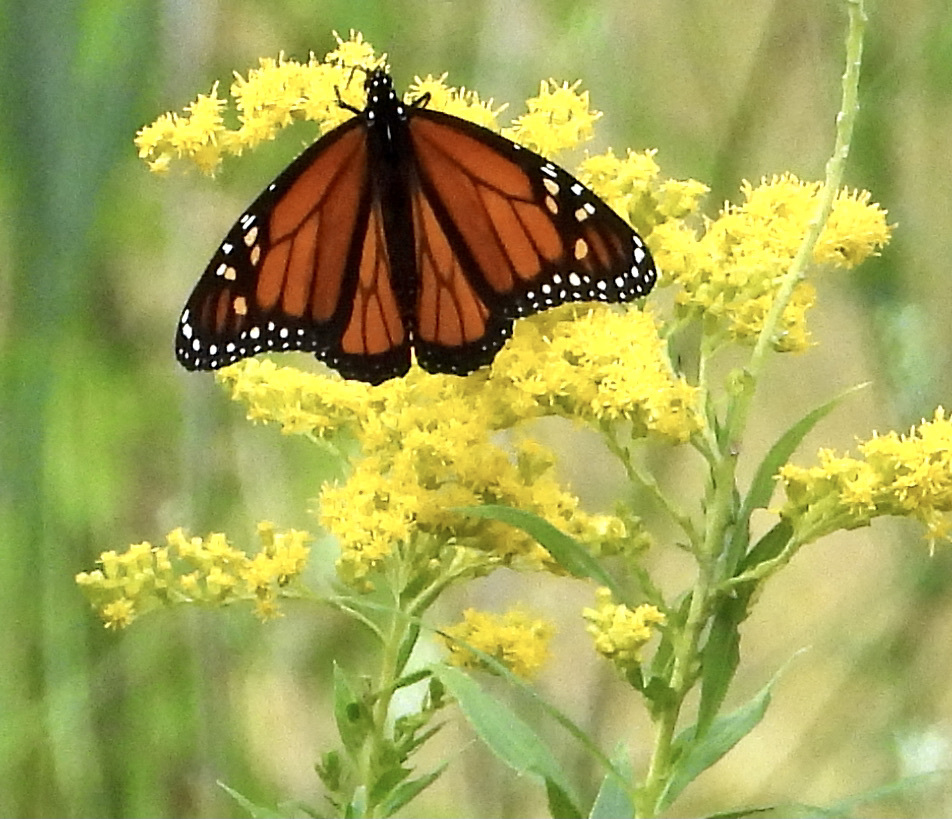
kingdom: Animalia
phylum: Arthropoda
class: Insecta
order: Lepidoptera
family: Nymphalidae
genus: Danaus
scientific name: Danaus plexippus
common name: Monarch
